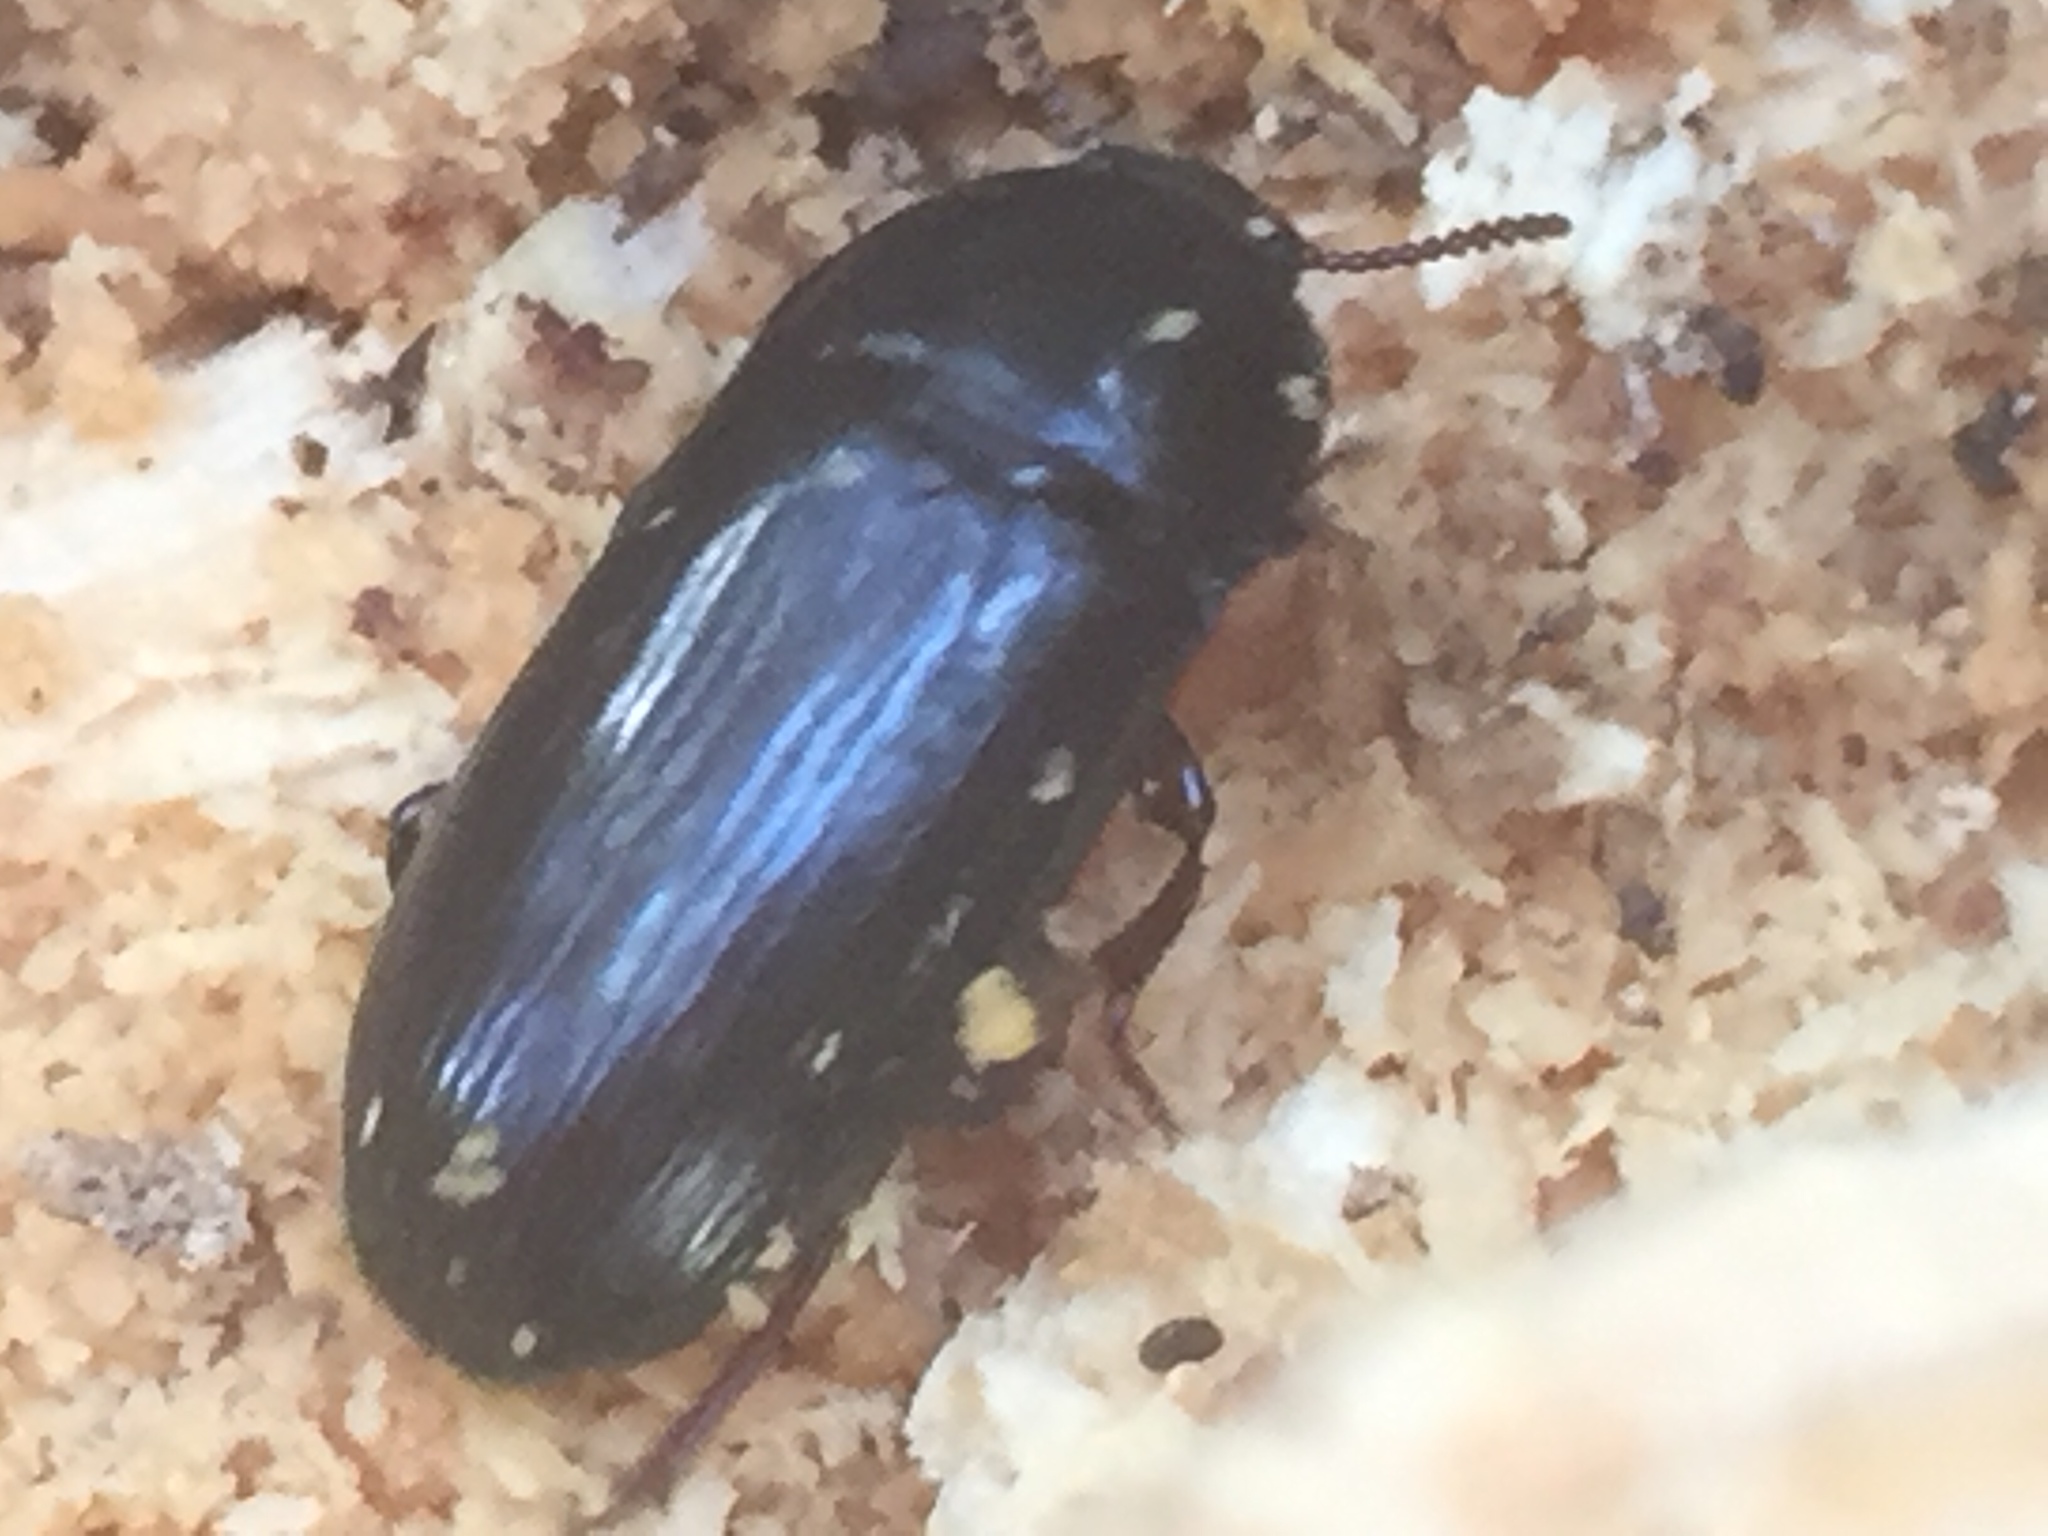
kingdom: Animalia
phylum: Arthropoda
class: Insecta
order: Coleoptera
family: Tenebrionidae
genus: Uloma
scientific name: Uloma tenebrionoides
